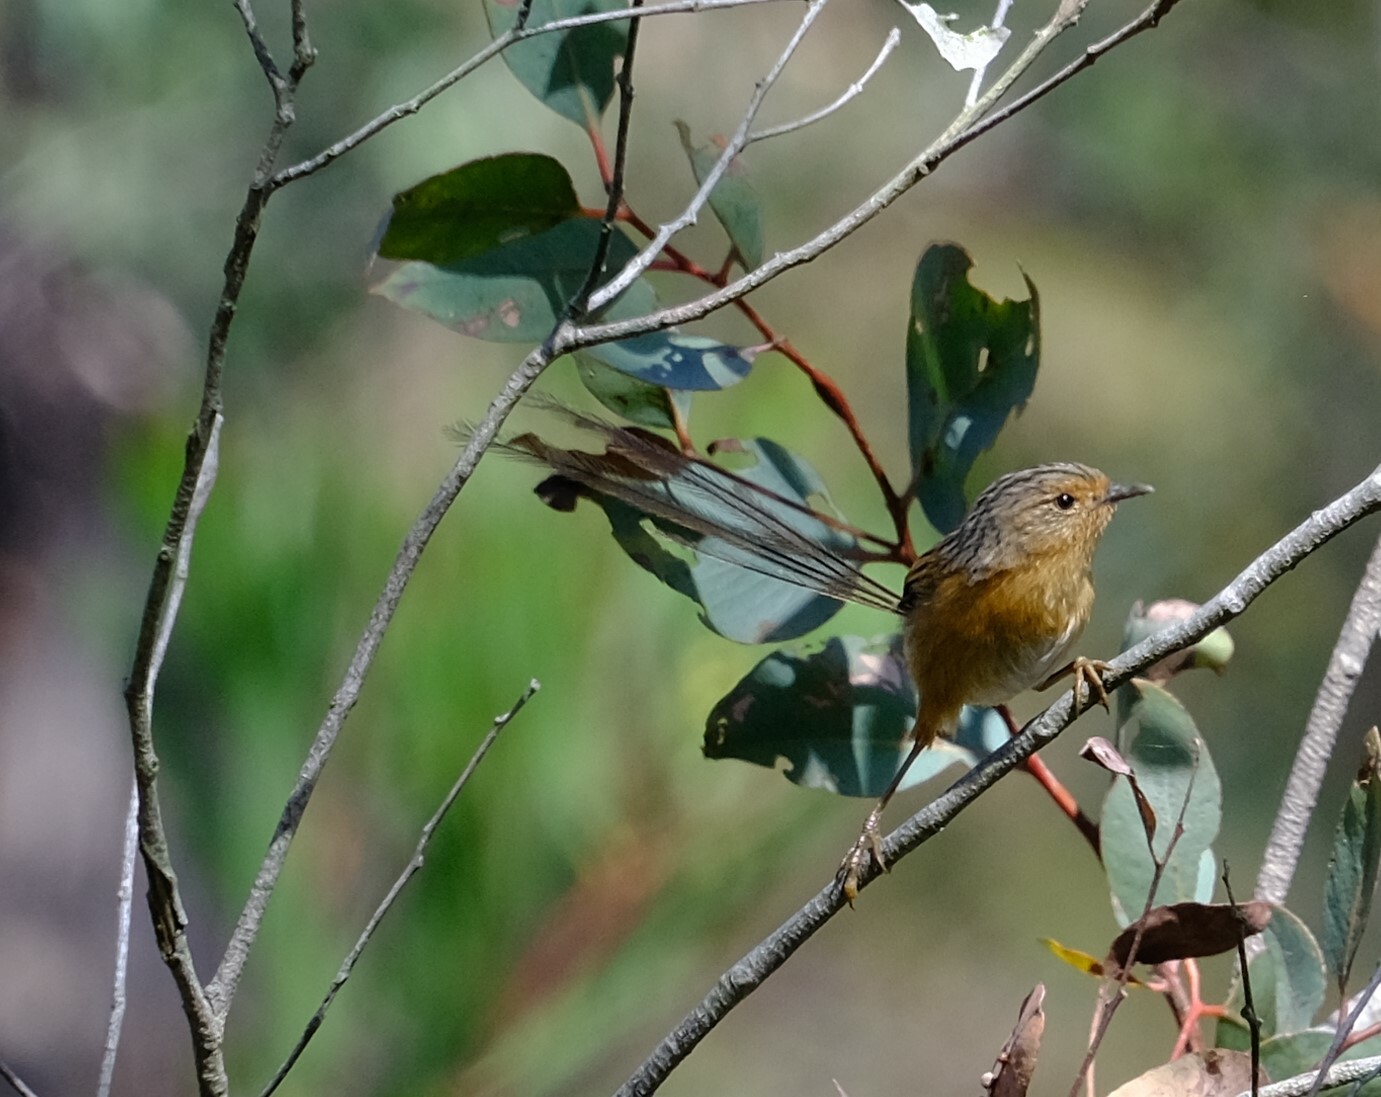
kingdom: Animalia
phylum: Chordata
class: Aves
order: Passeriformes
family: Maluridae
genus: Stipiturus
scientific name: Stipiturus malachurus
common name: Southern emu-wren
